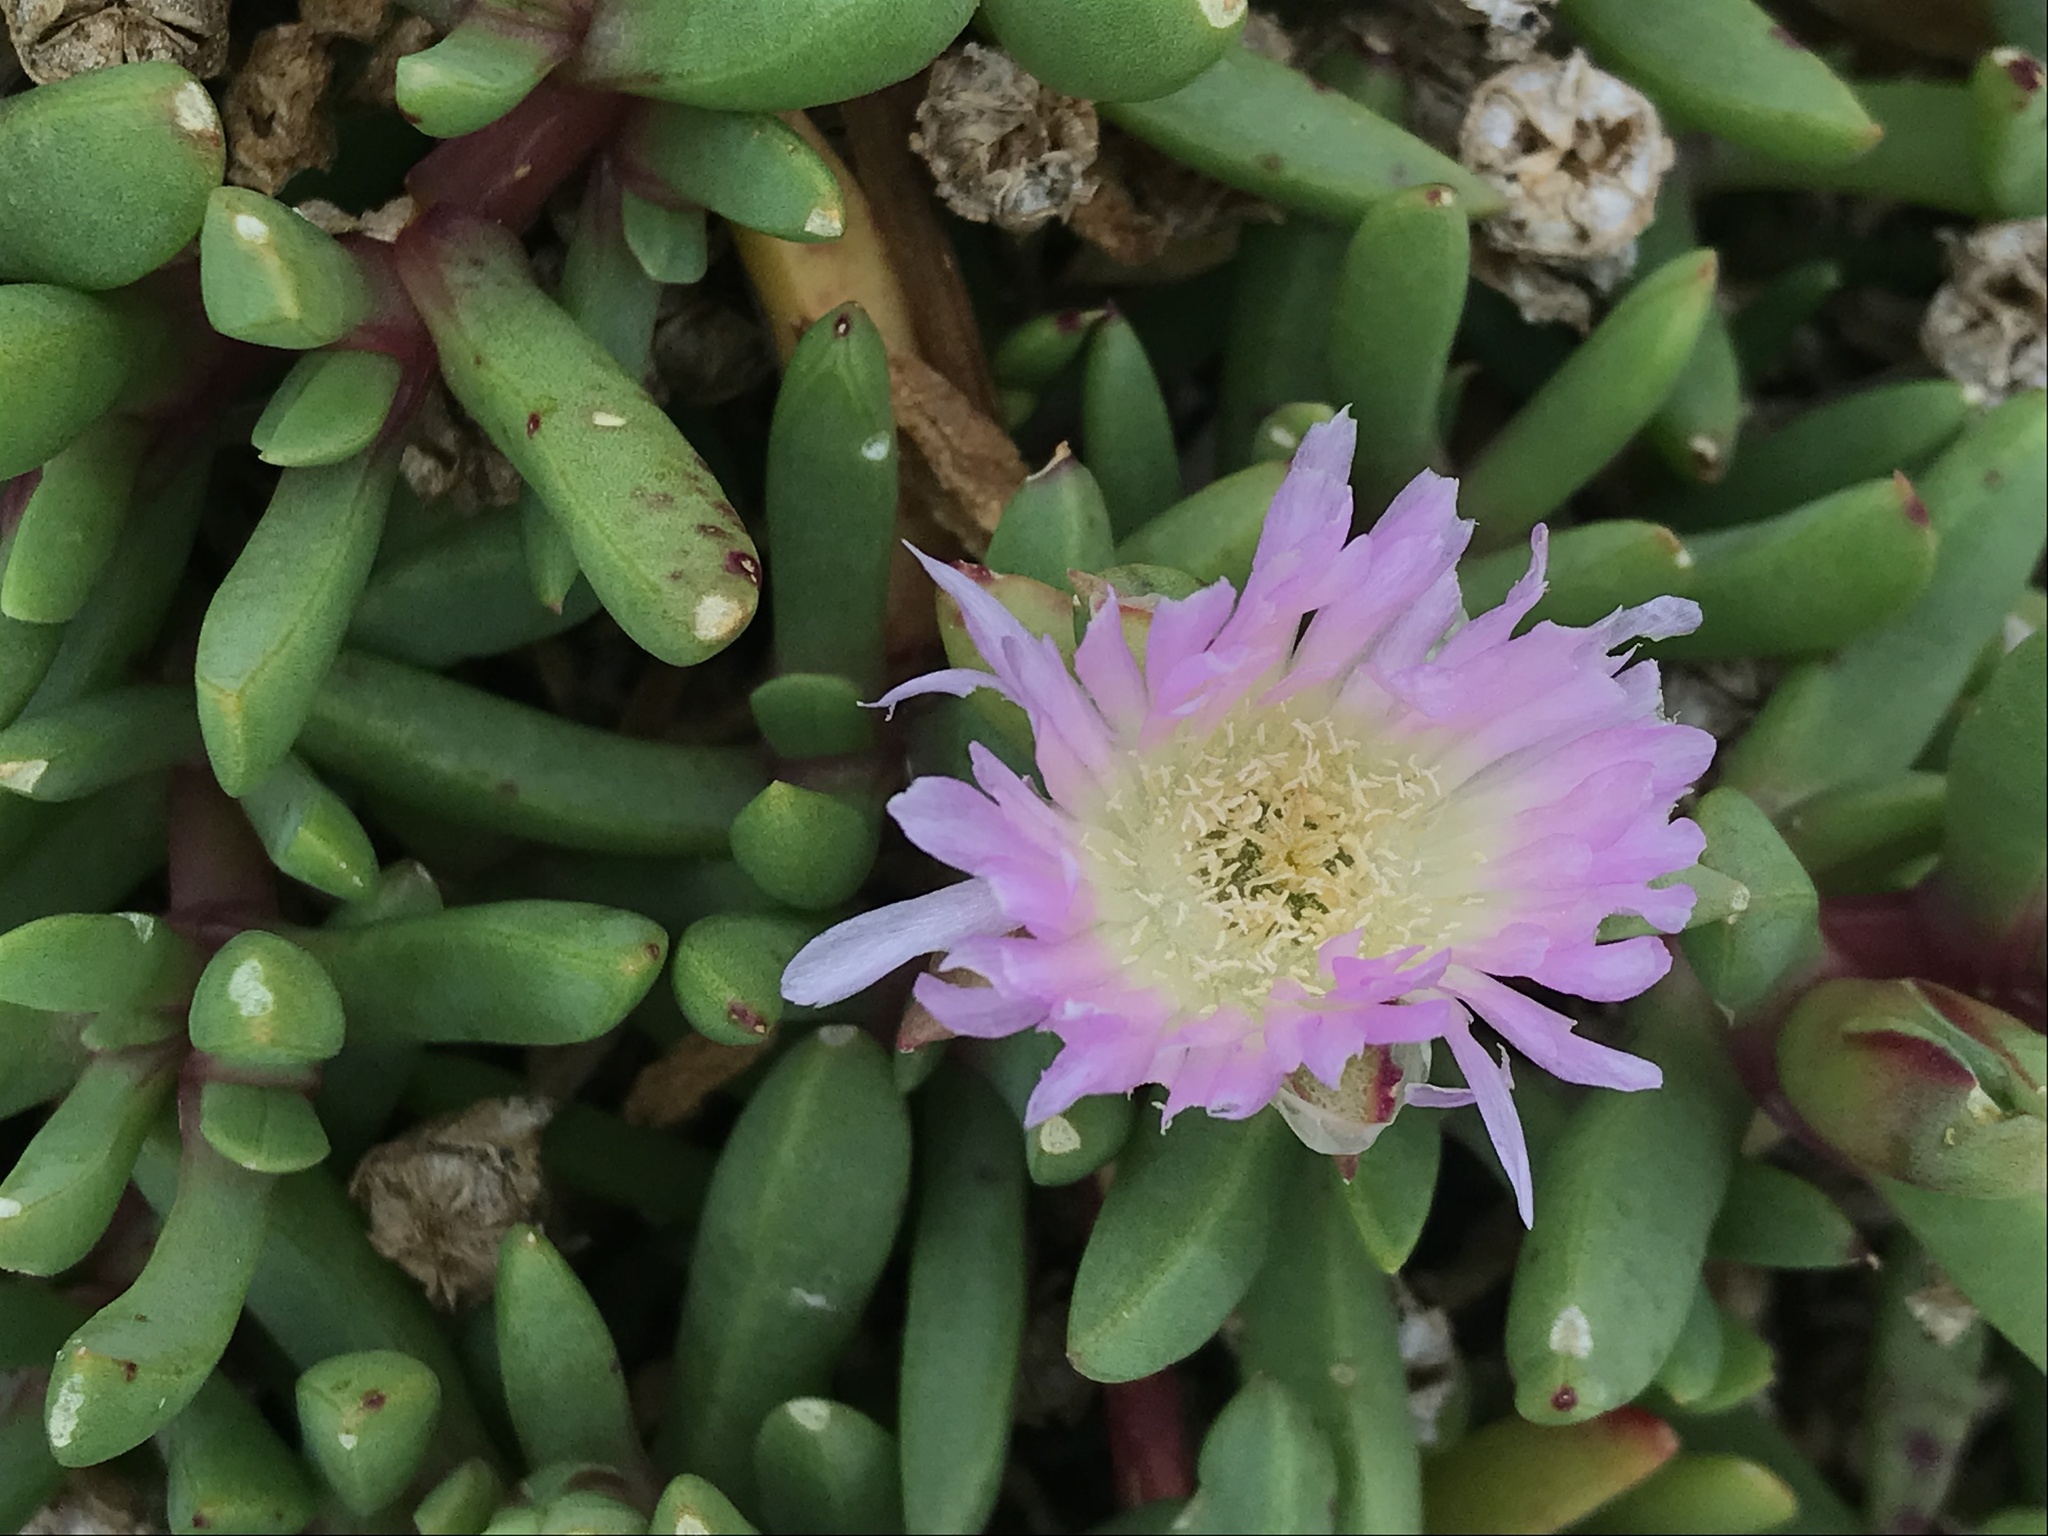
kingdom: Plantae
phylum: Tracheophyta
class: Magnoliopsida
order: Caryophyllales
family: Aizoaceae
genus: Disphyma
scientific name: Disphyma australe
